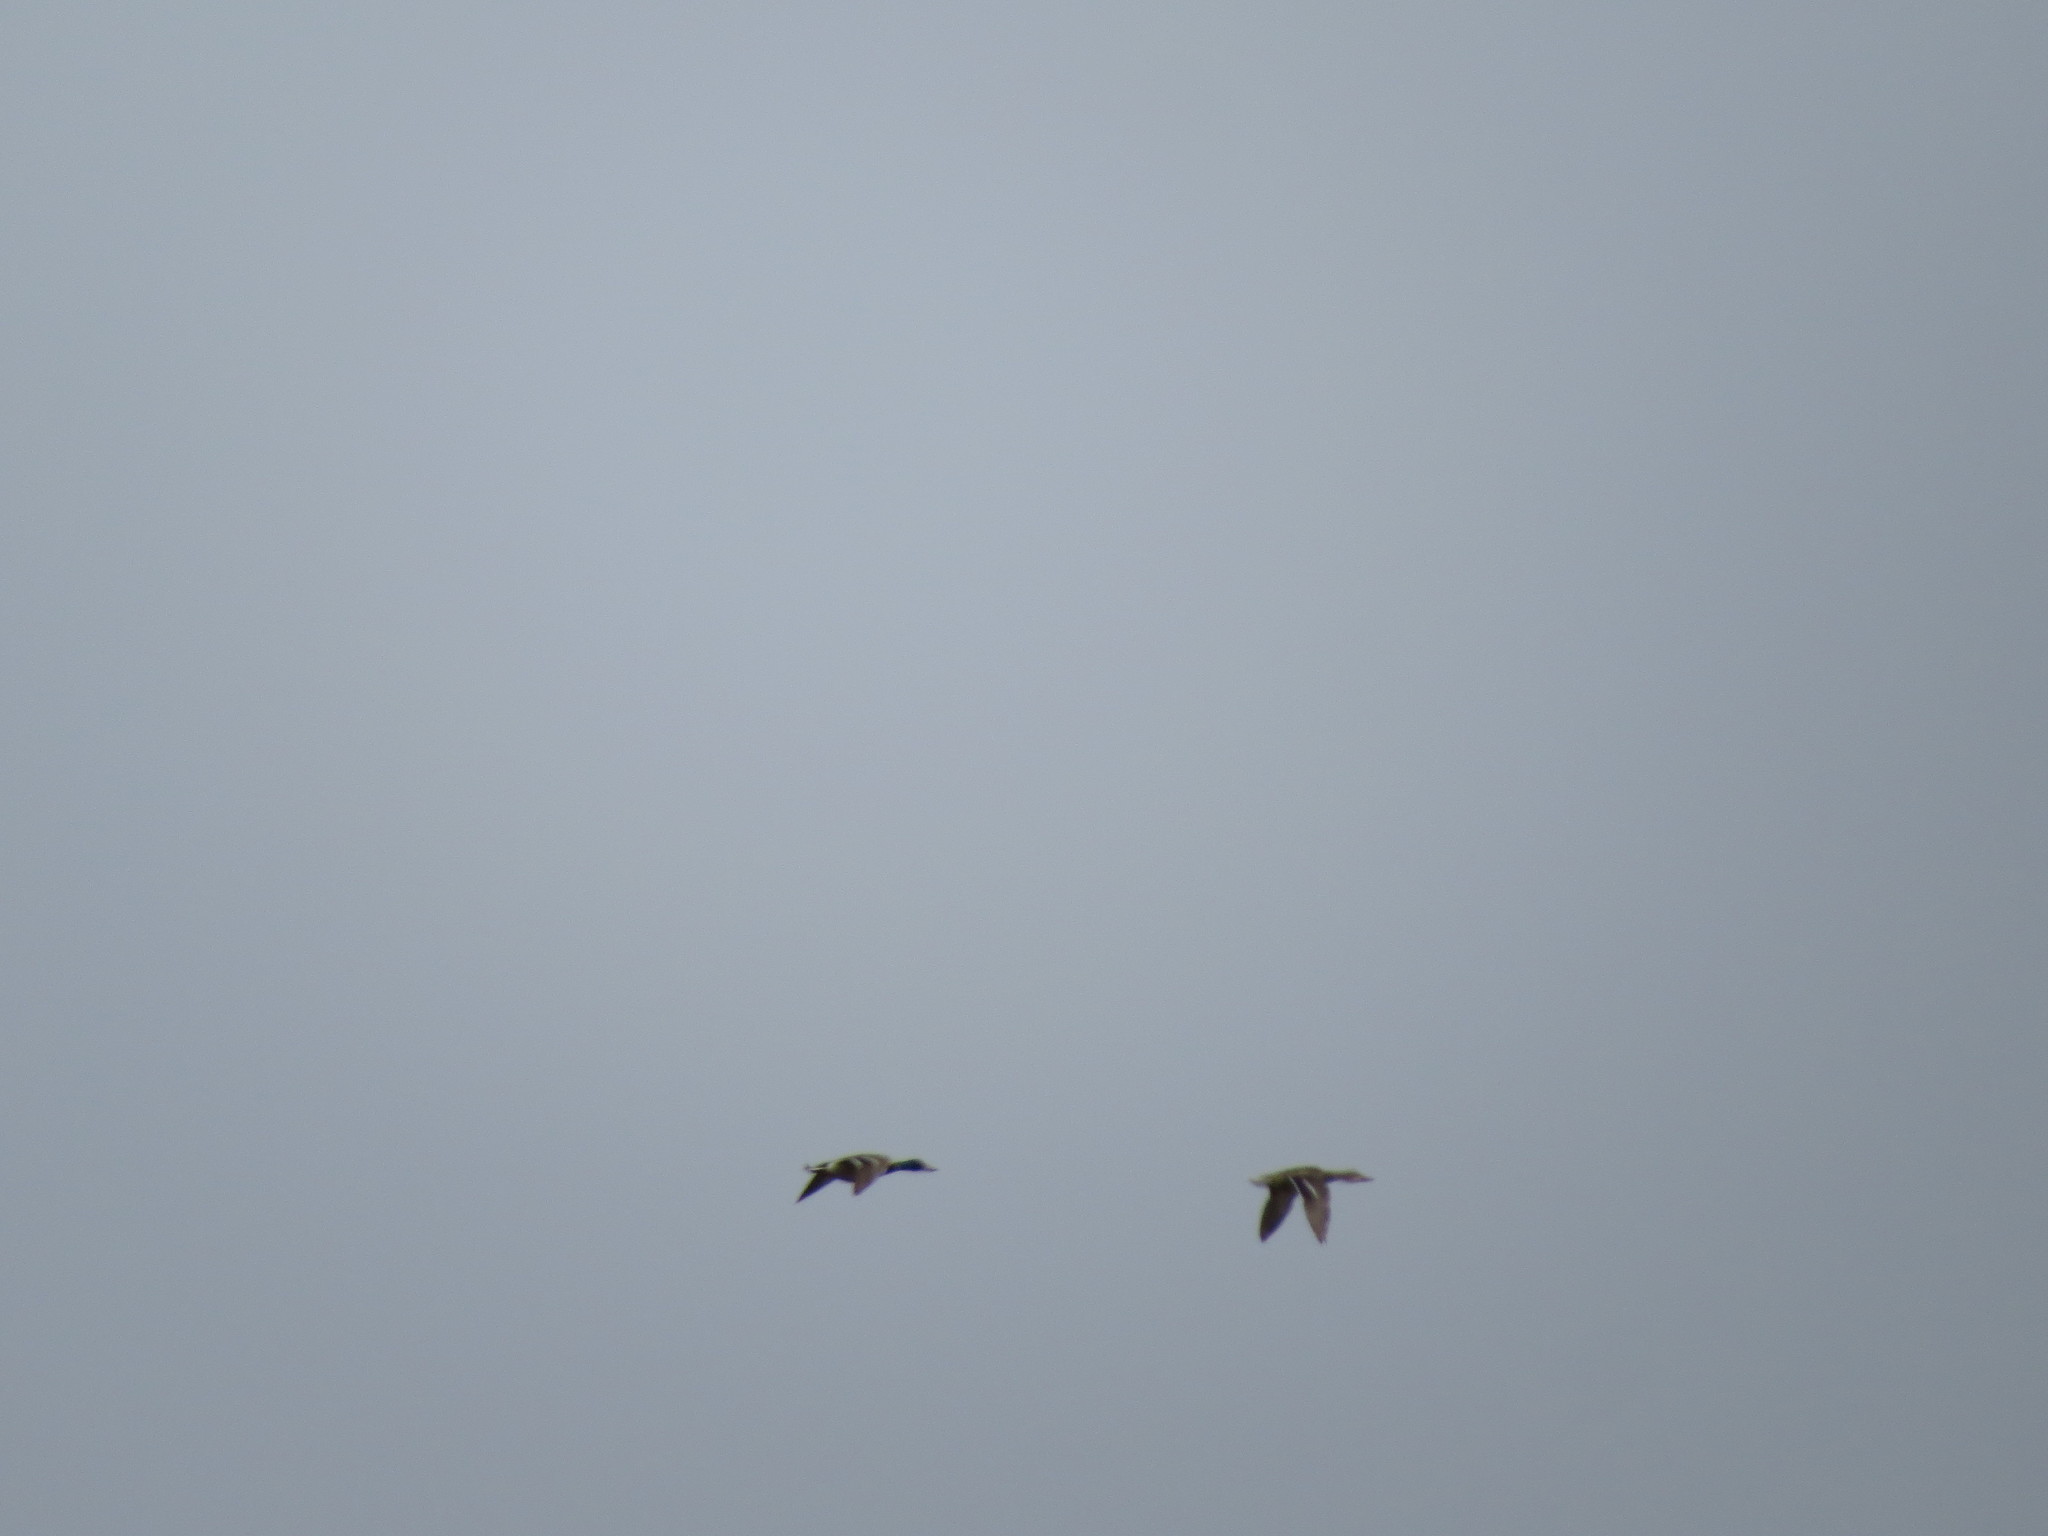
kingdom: Animalia
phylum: Chordata
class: Aves
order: Anseriformes
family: Anatidae
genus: Anas
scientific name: Anas platyrhynchos
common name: Mallard
